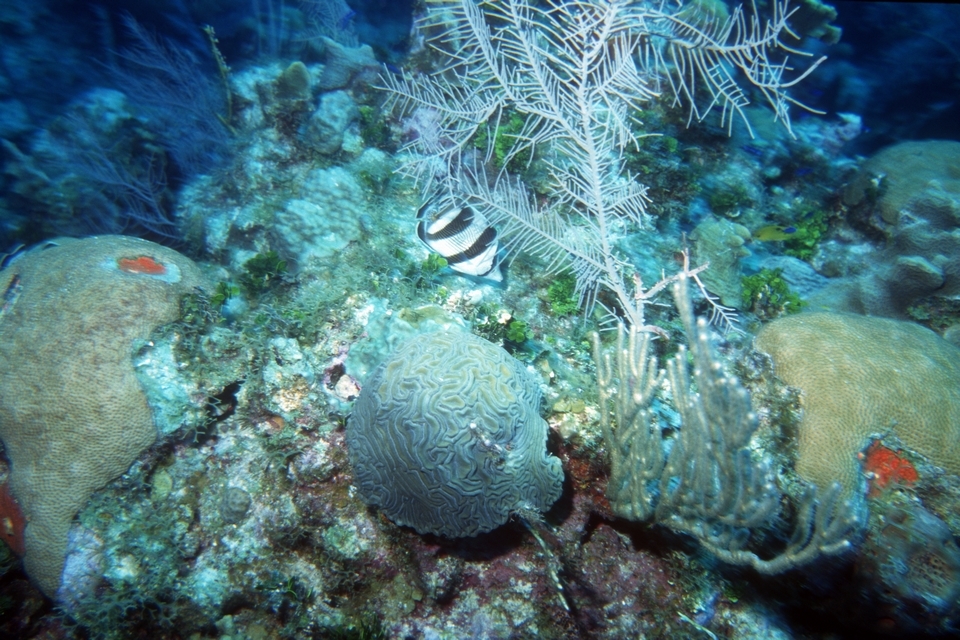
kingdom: Animalia
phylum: Chordata
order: Perciformes
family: Chaetodontidae
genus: Chaetodon
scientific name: Chaetodon striatus
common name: Banded butterflyfish
